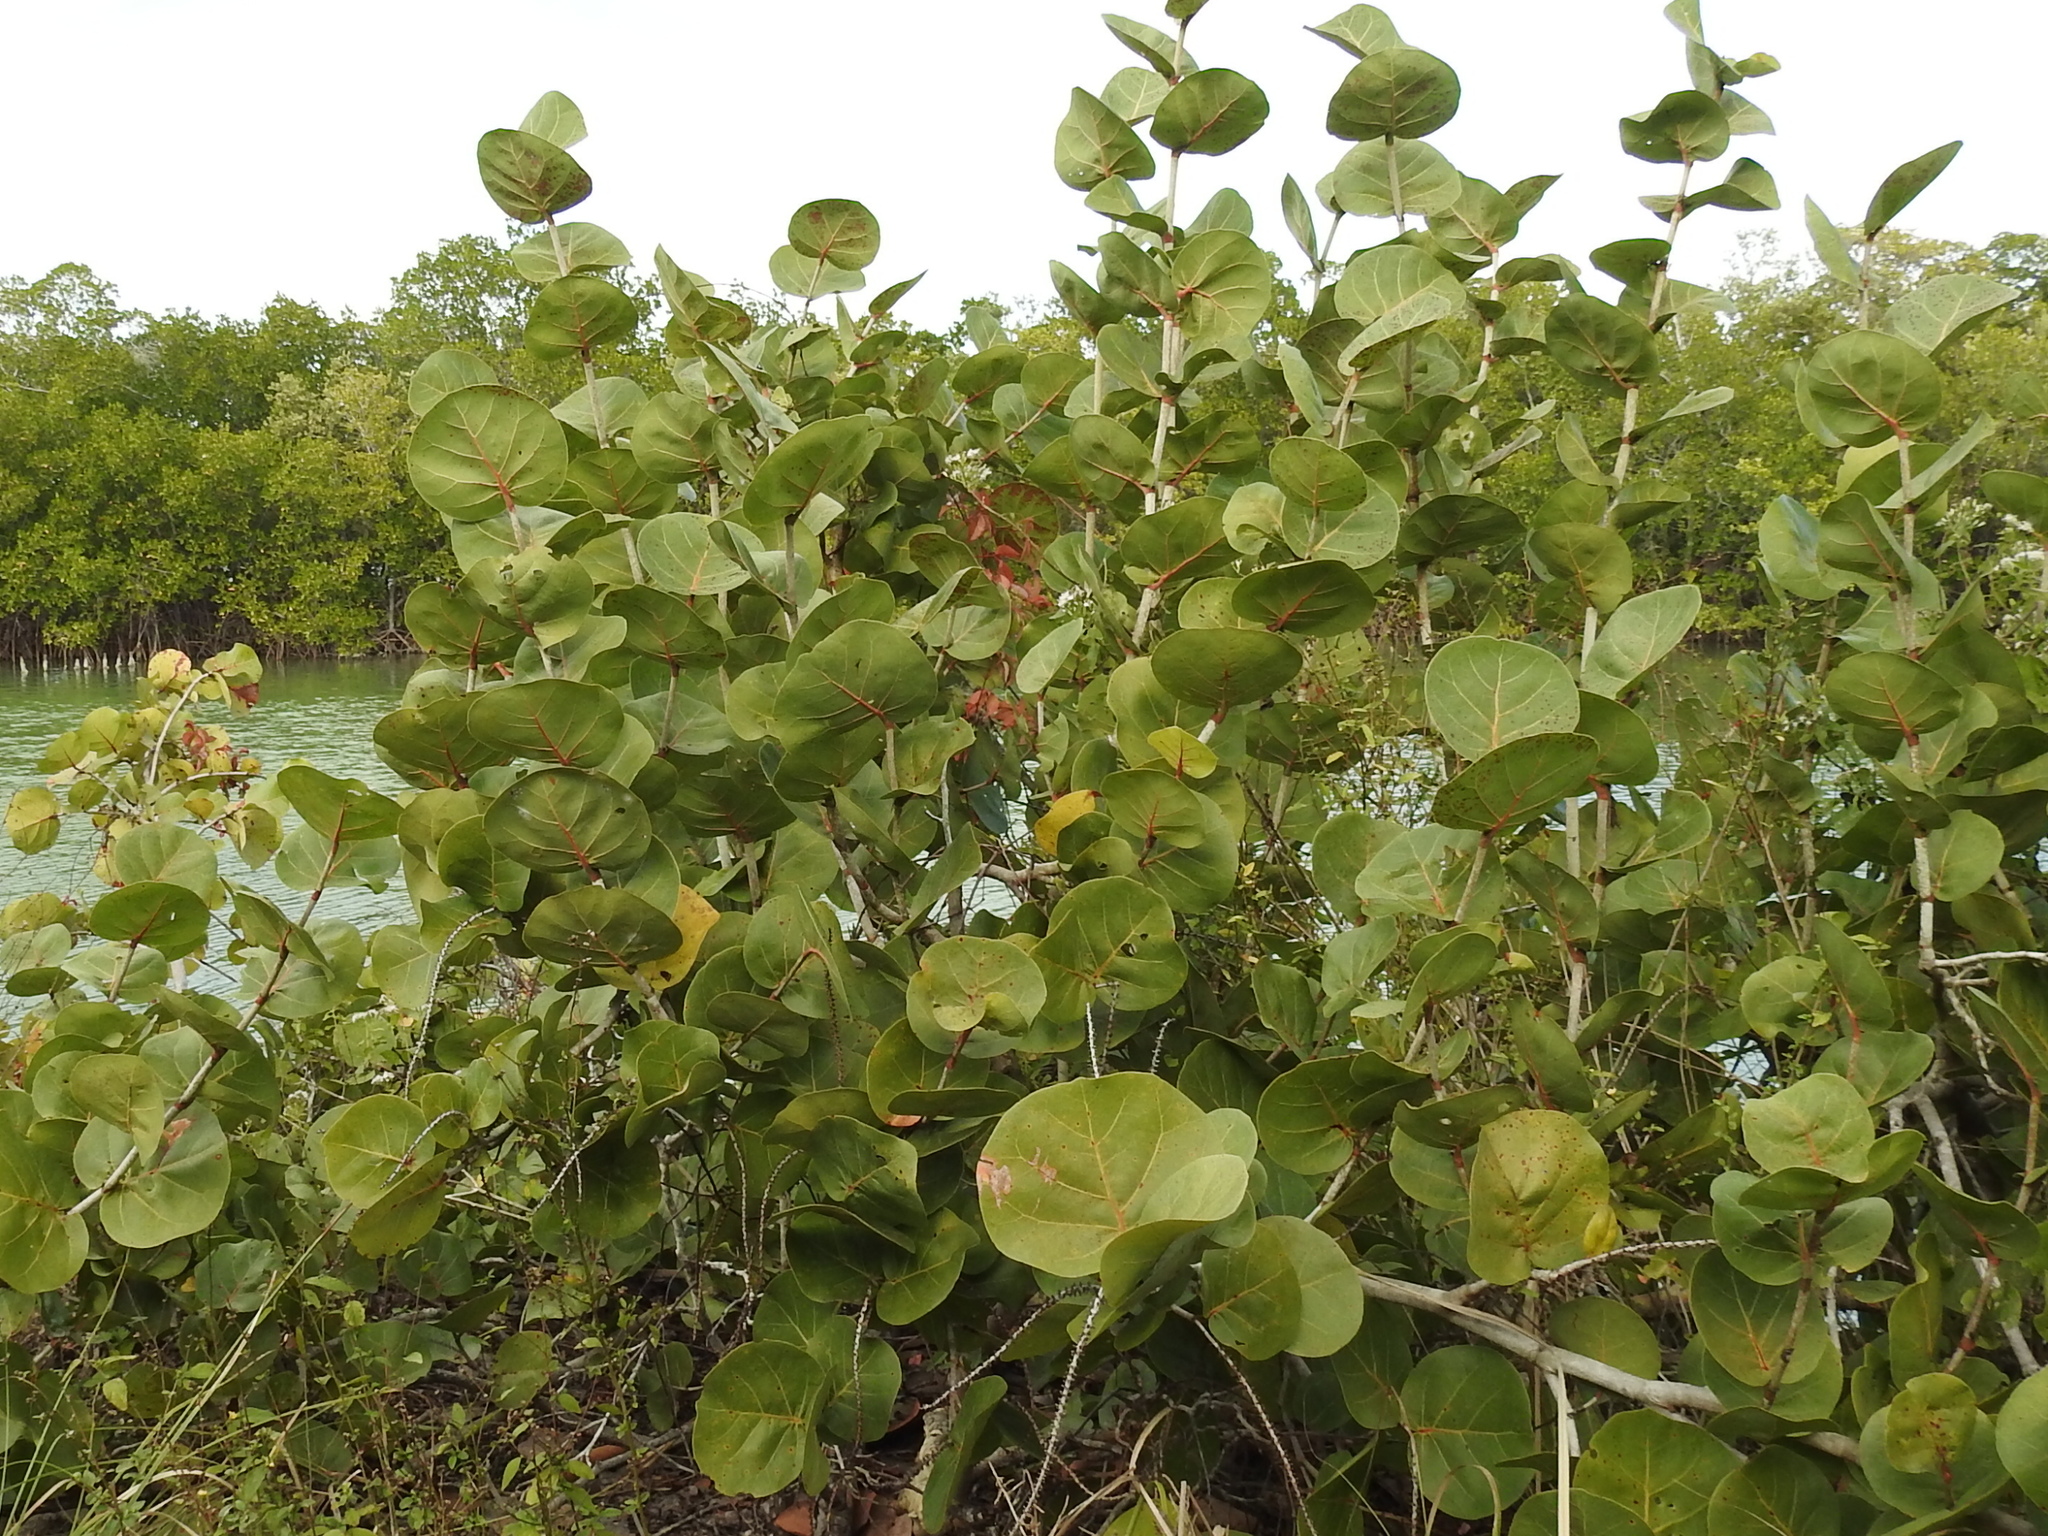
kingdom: Plantae
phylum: Tracheophyta
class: Magnoliopsida
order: Caryophyllales
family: Polygonaceae
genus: Coccoloba
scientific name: Coccoloba uvifera
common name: Seagrape
